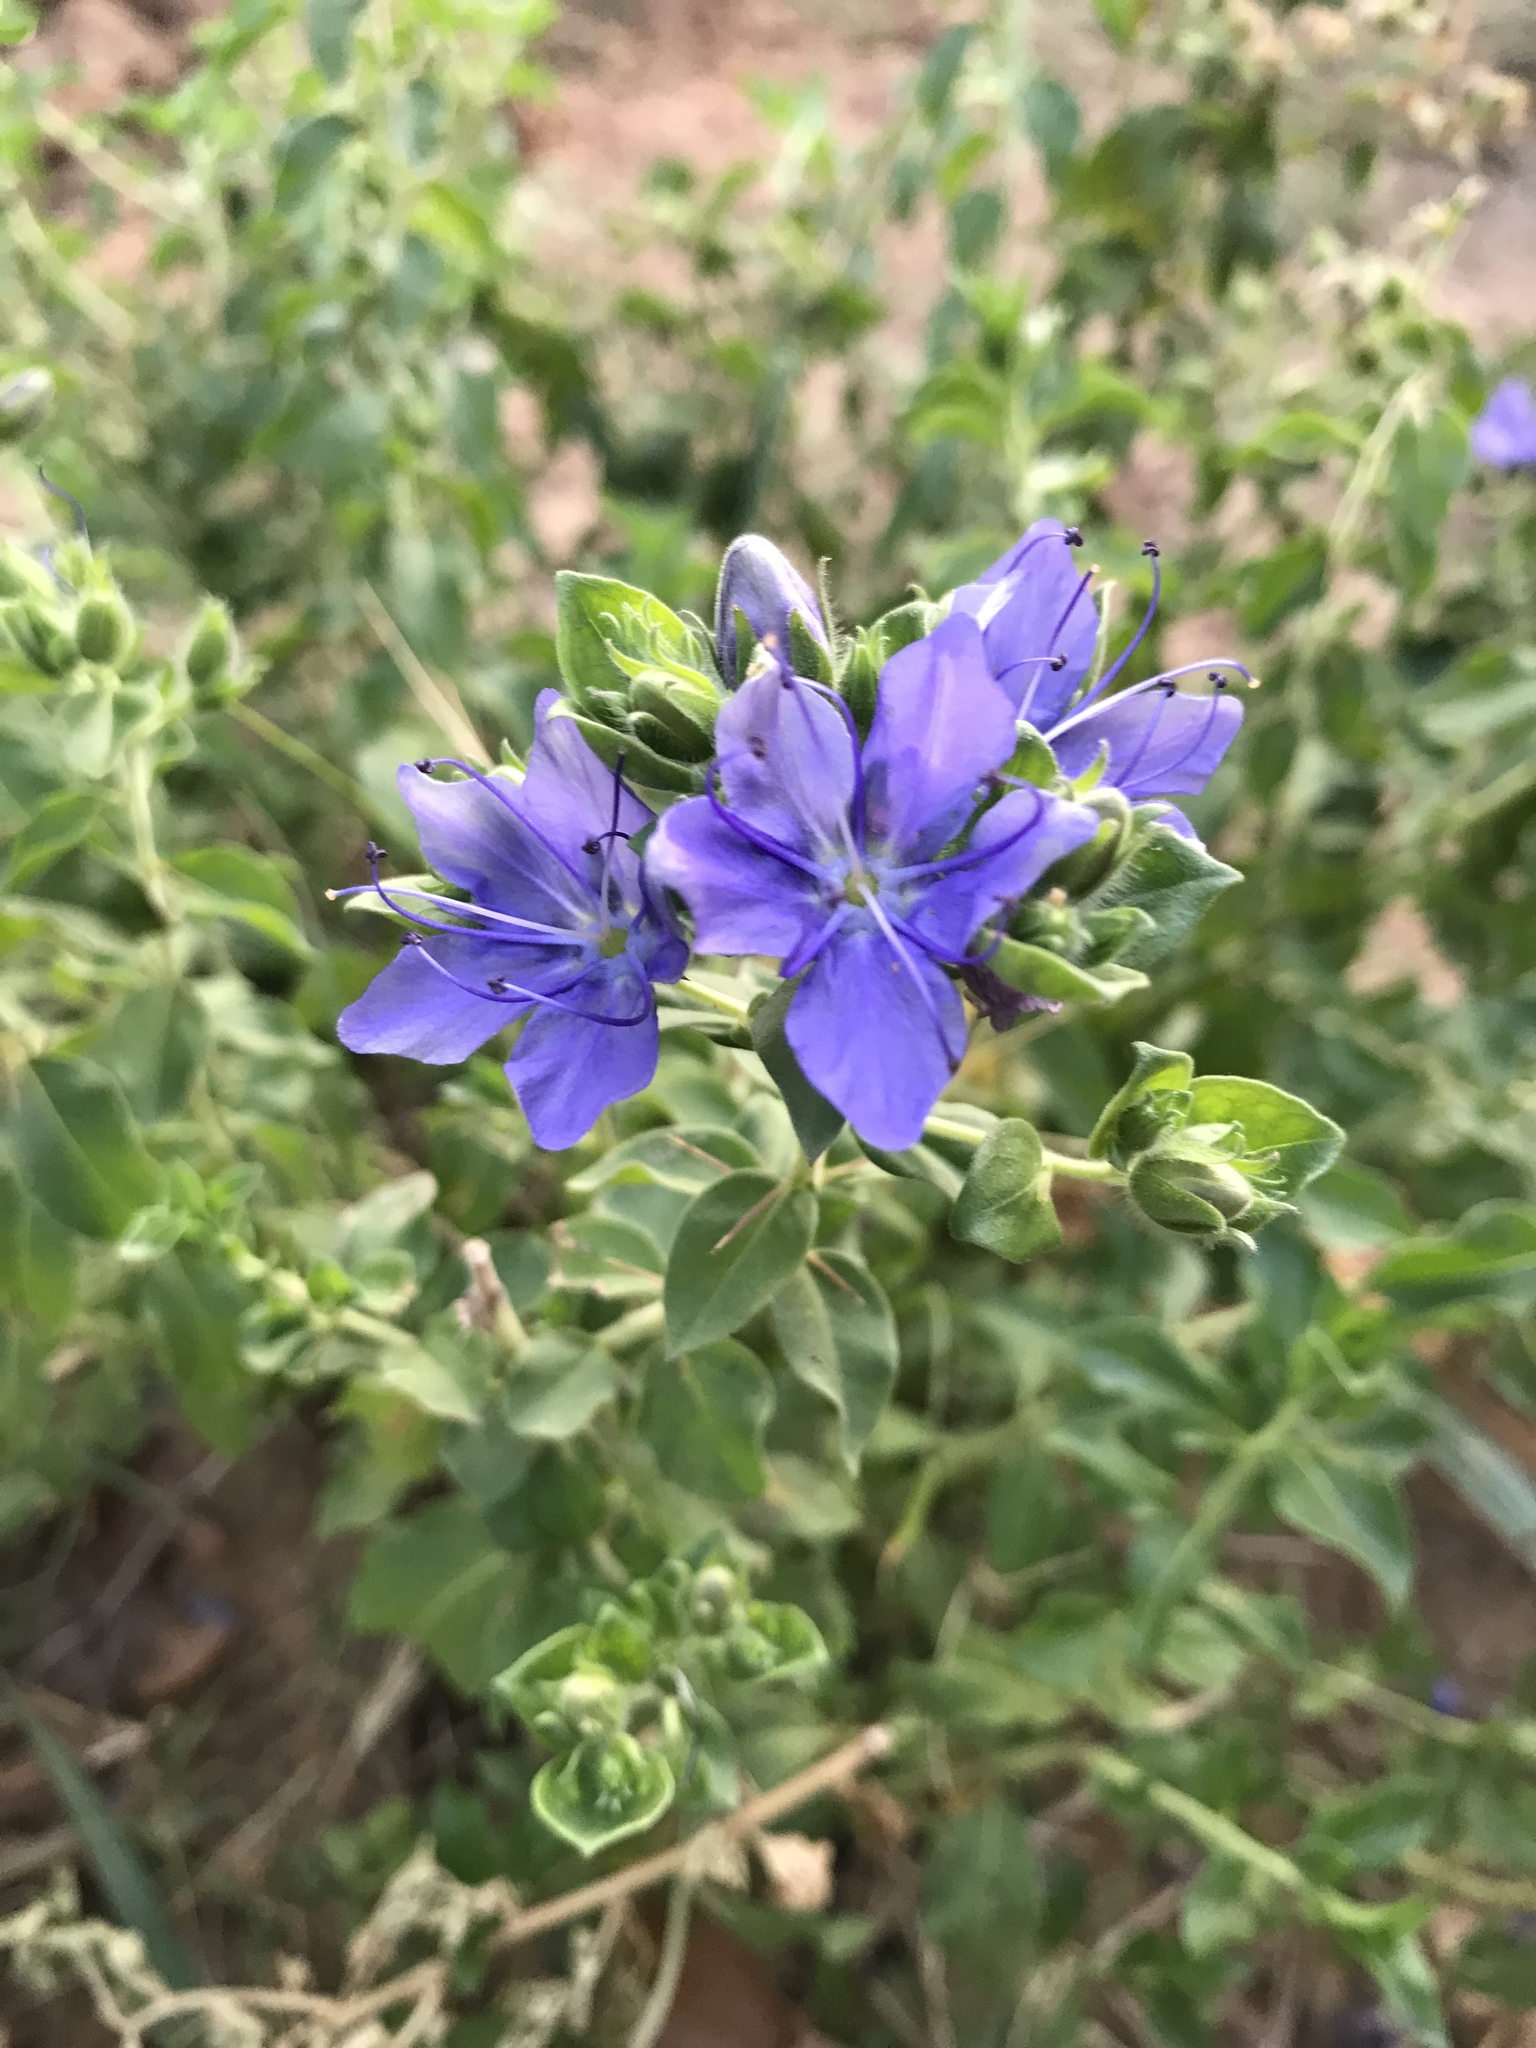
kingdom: Plantae
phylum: Tracheophyta
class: Magnoliopsida
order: Solanales
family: Hydroleaceae
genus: Hydrolea
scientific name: Hydrolea ovata
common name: Ovate false fiddleleaf
